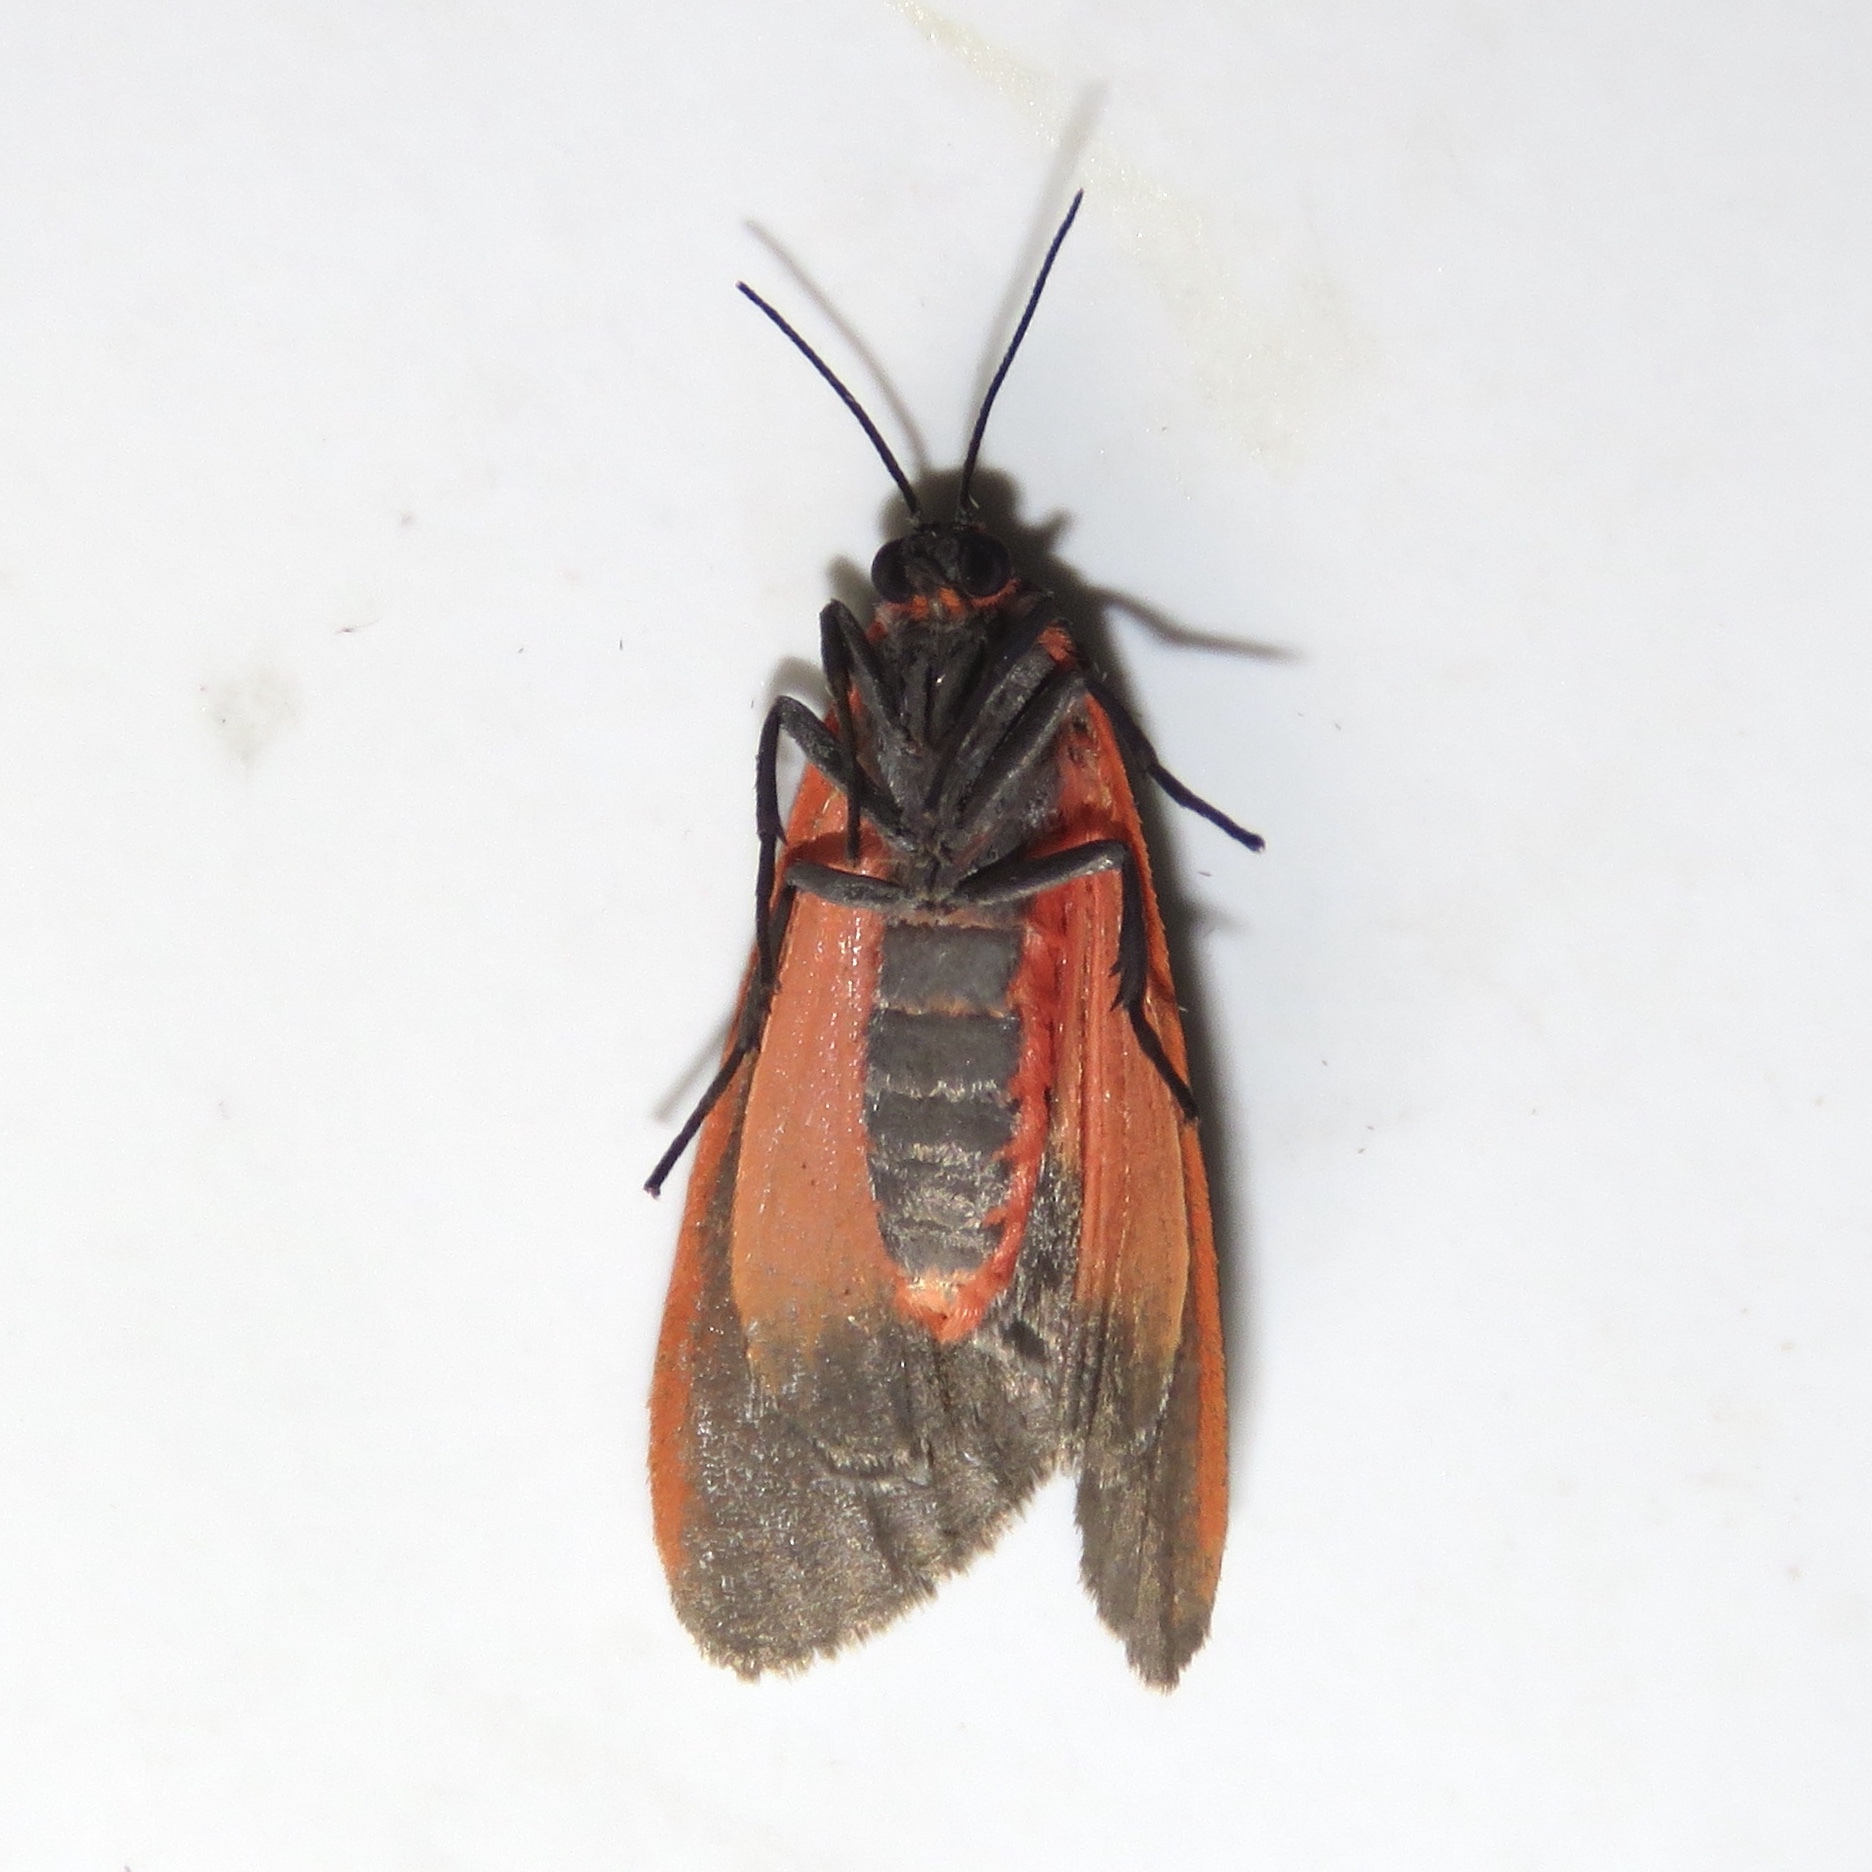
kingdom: Animalia
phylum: Arthropoda
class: Insecta
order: Lepidoptera
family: Erebidae
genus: Virbia
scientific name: Virbia laeta
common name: Joyful holomelina moth
